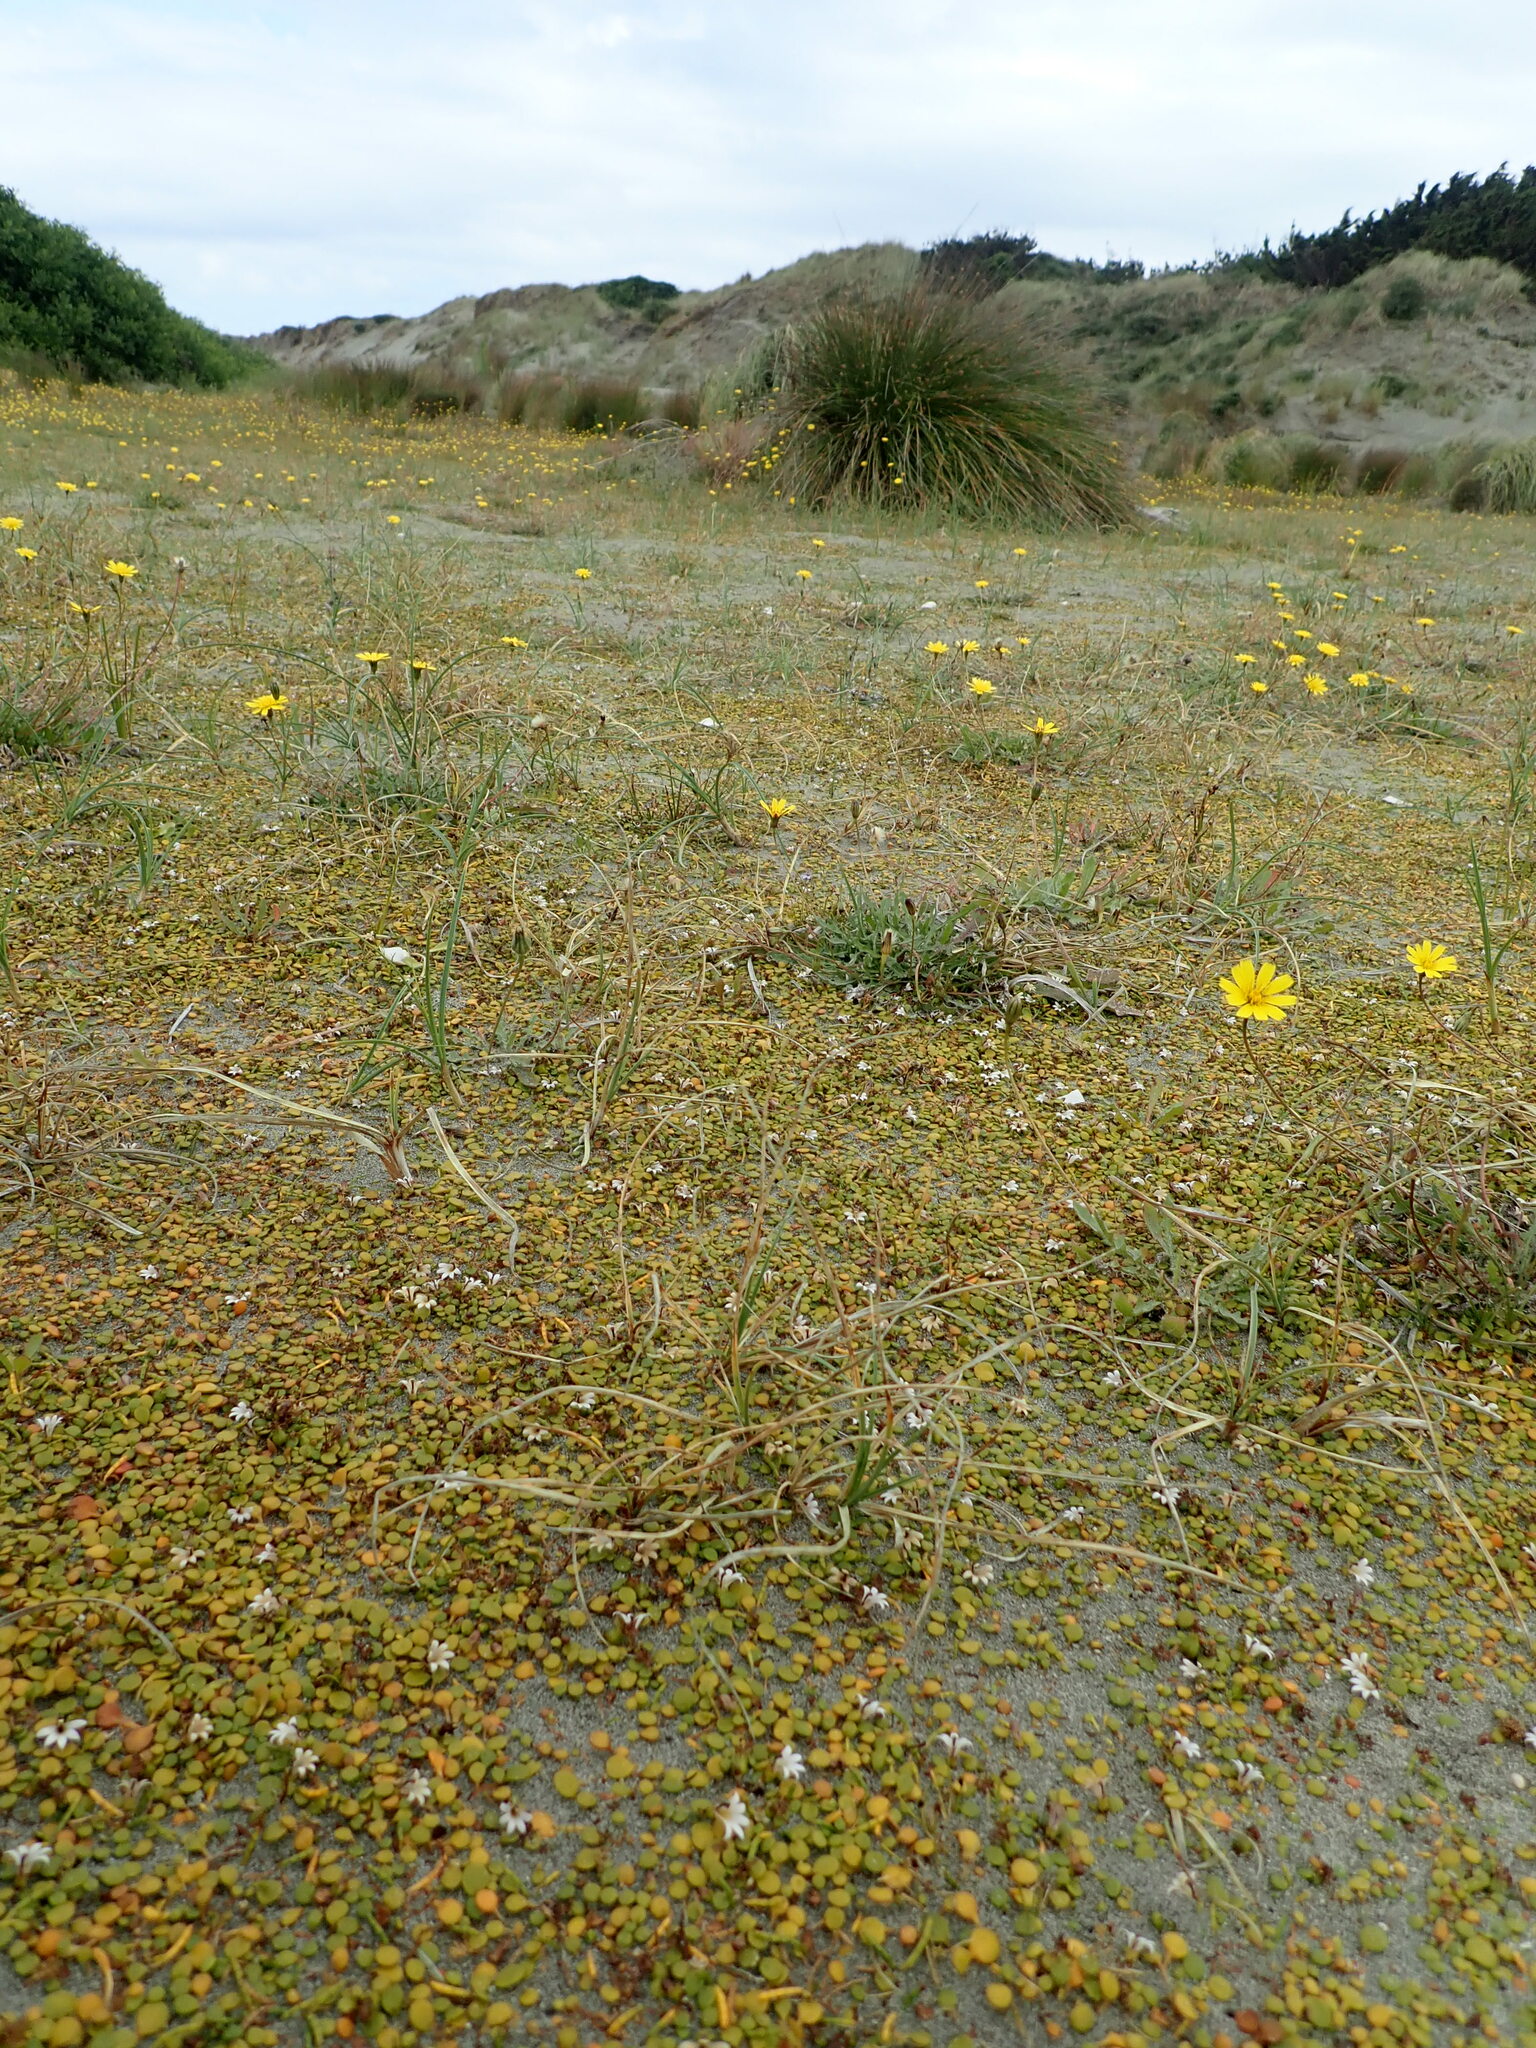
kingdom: Animalia
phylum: Arthropoda
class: Insecta
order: Hymenoptera
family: Apidae
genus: Apis
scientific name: Apis mellifera
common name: Honey bee
